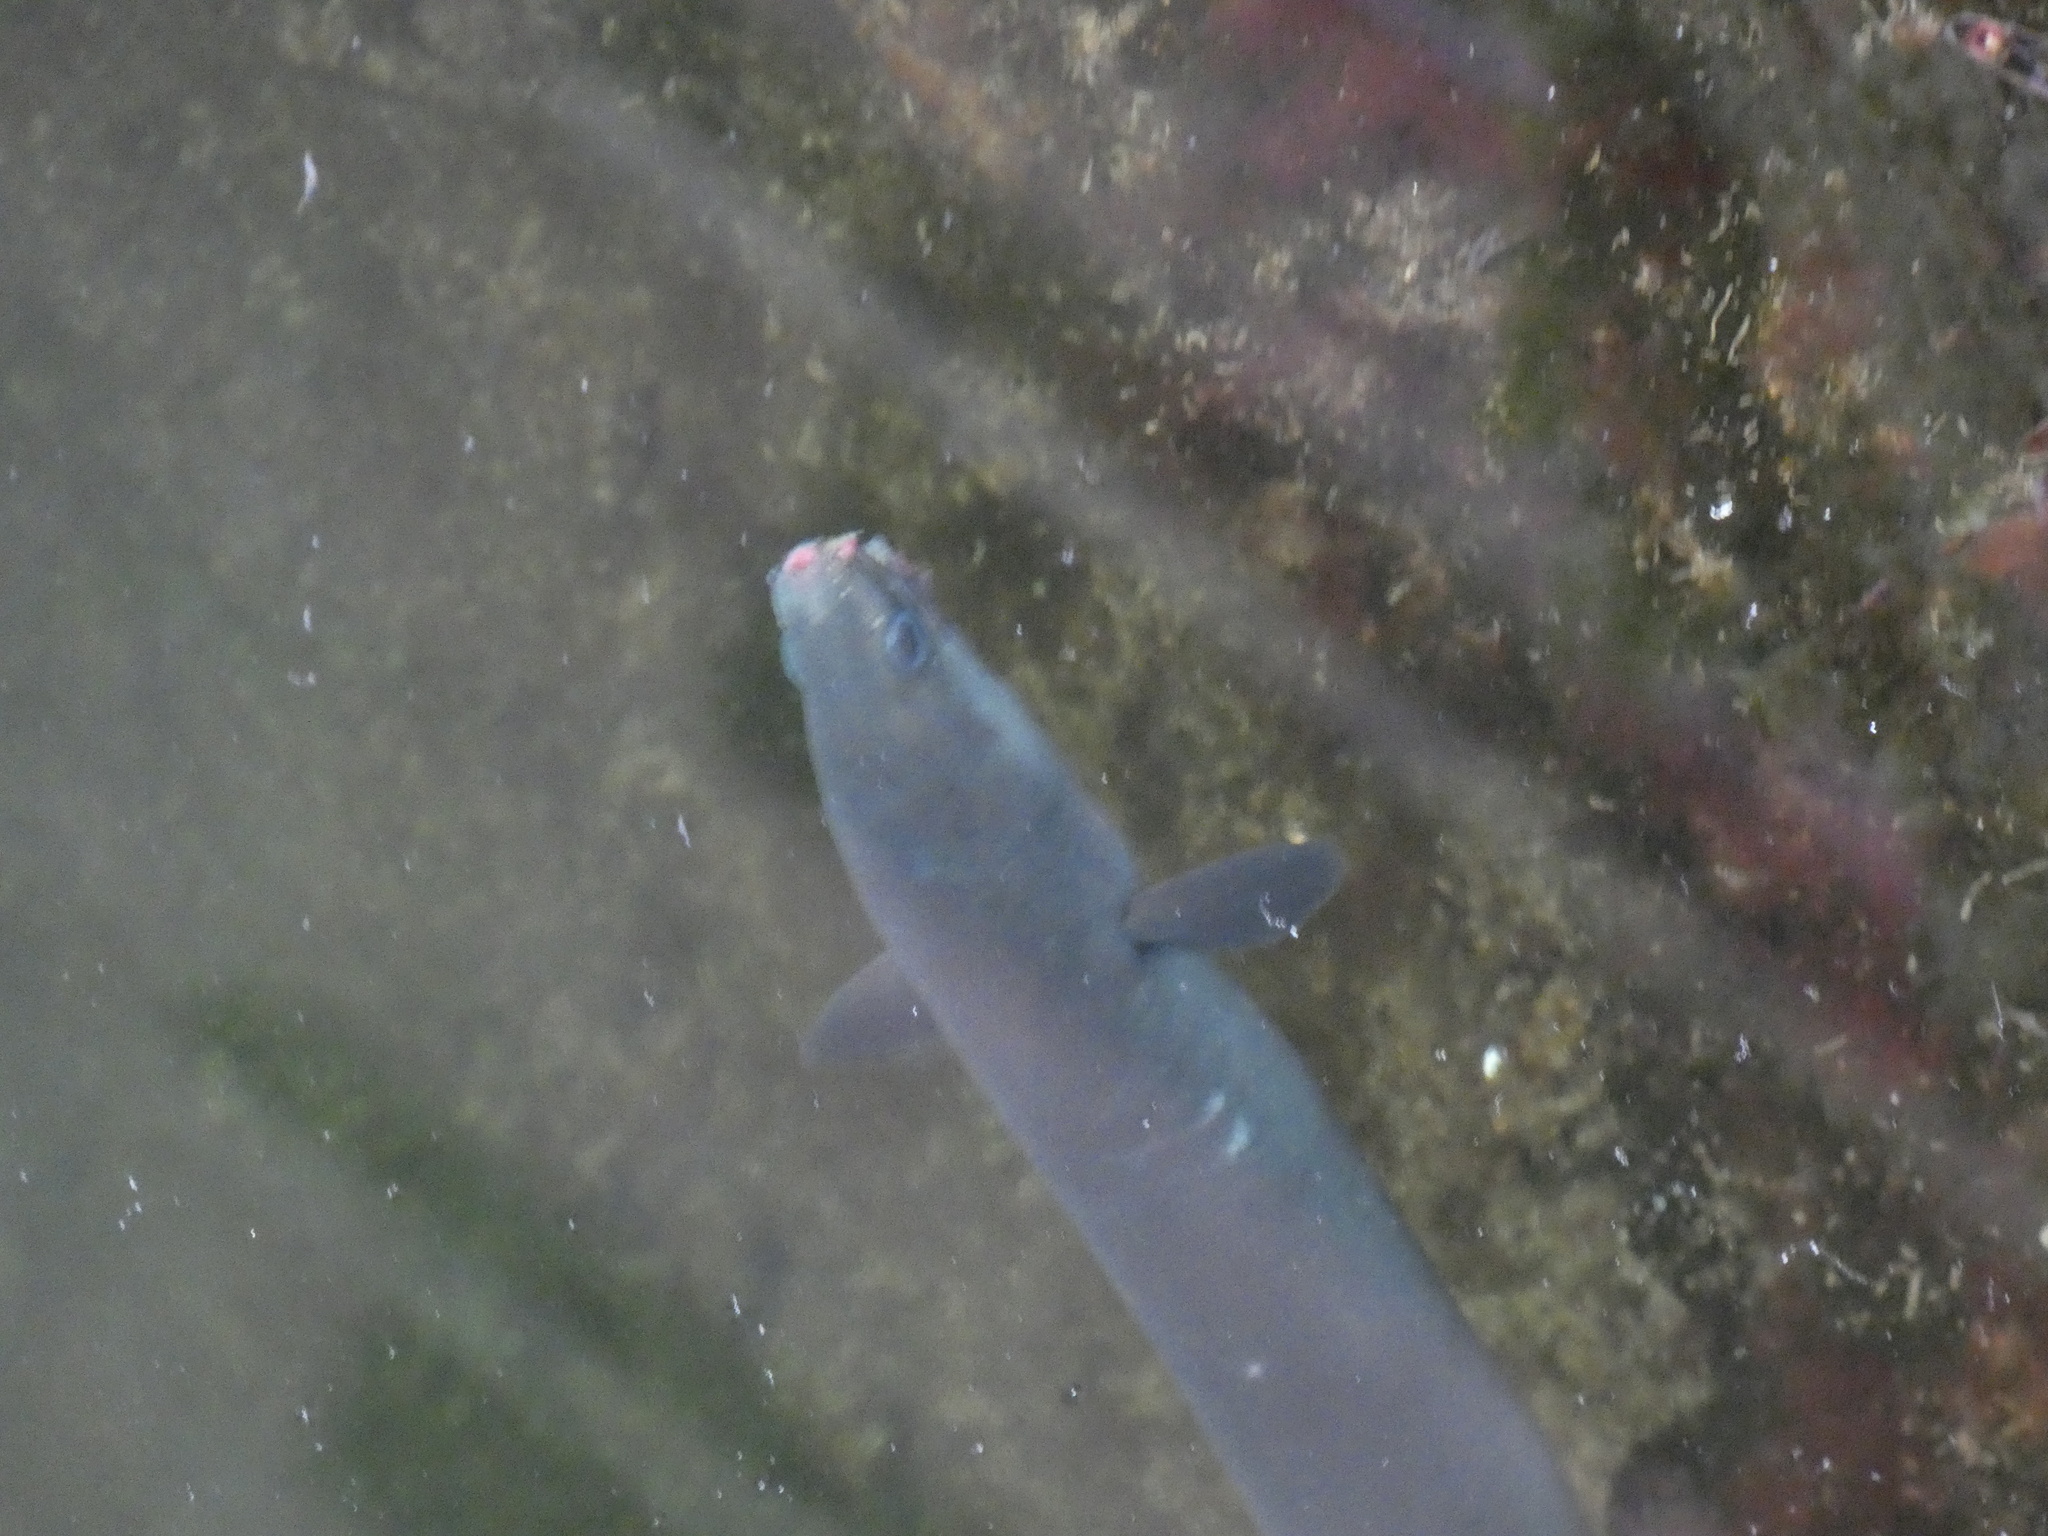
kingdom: Animalia
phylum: Chordata
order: Anguilliformes
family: Anguillidae
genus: Anguilla
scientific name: Anguilla anguilla
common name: European eel
